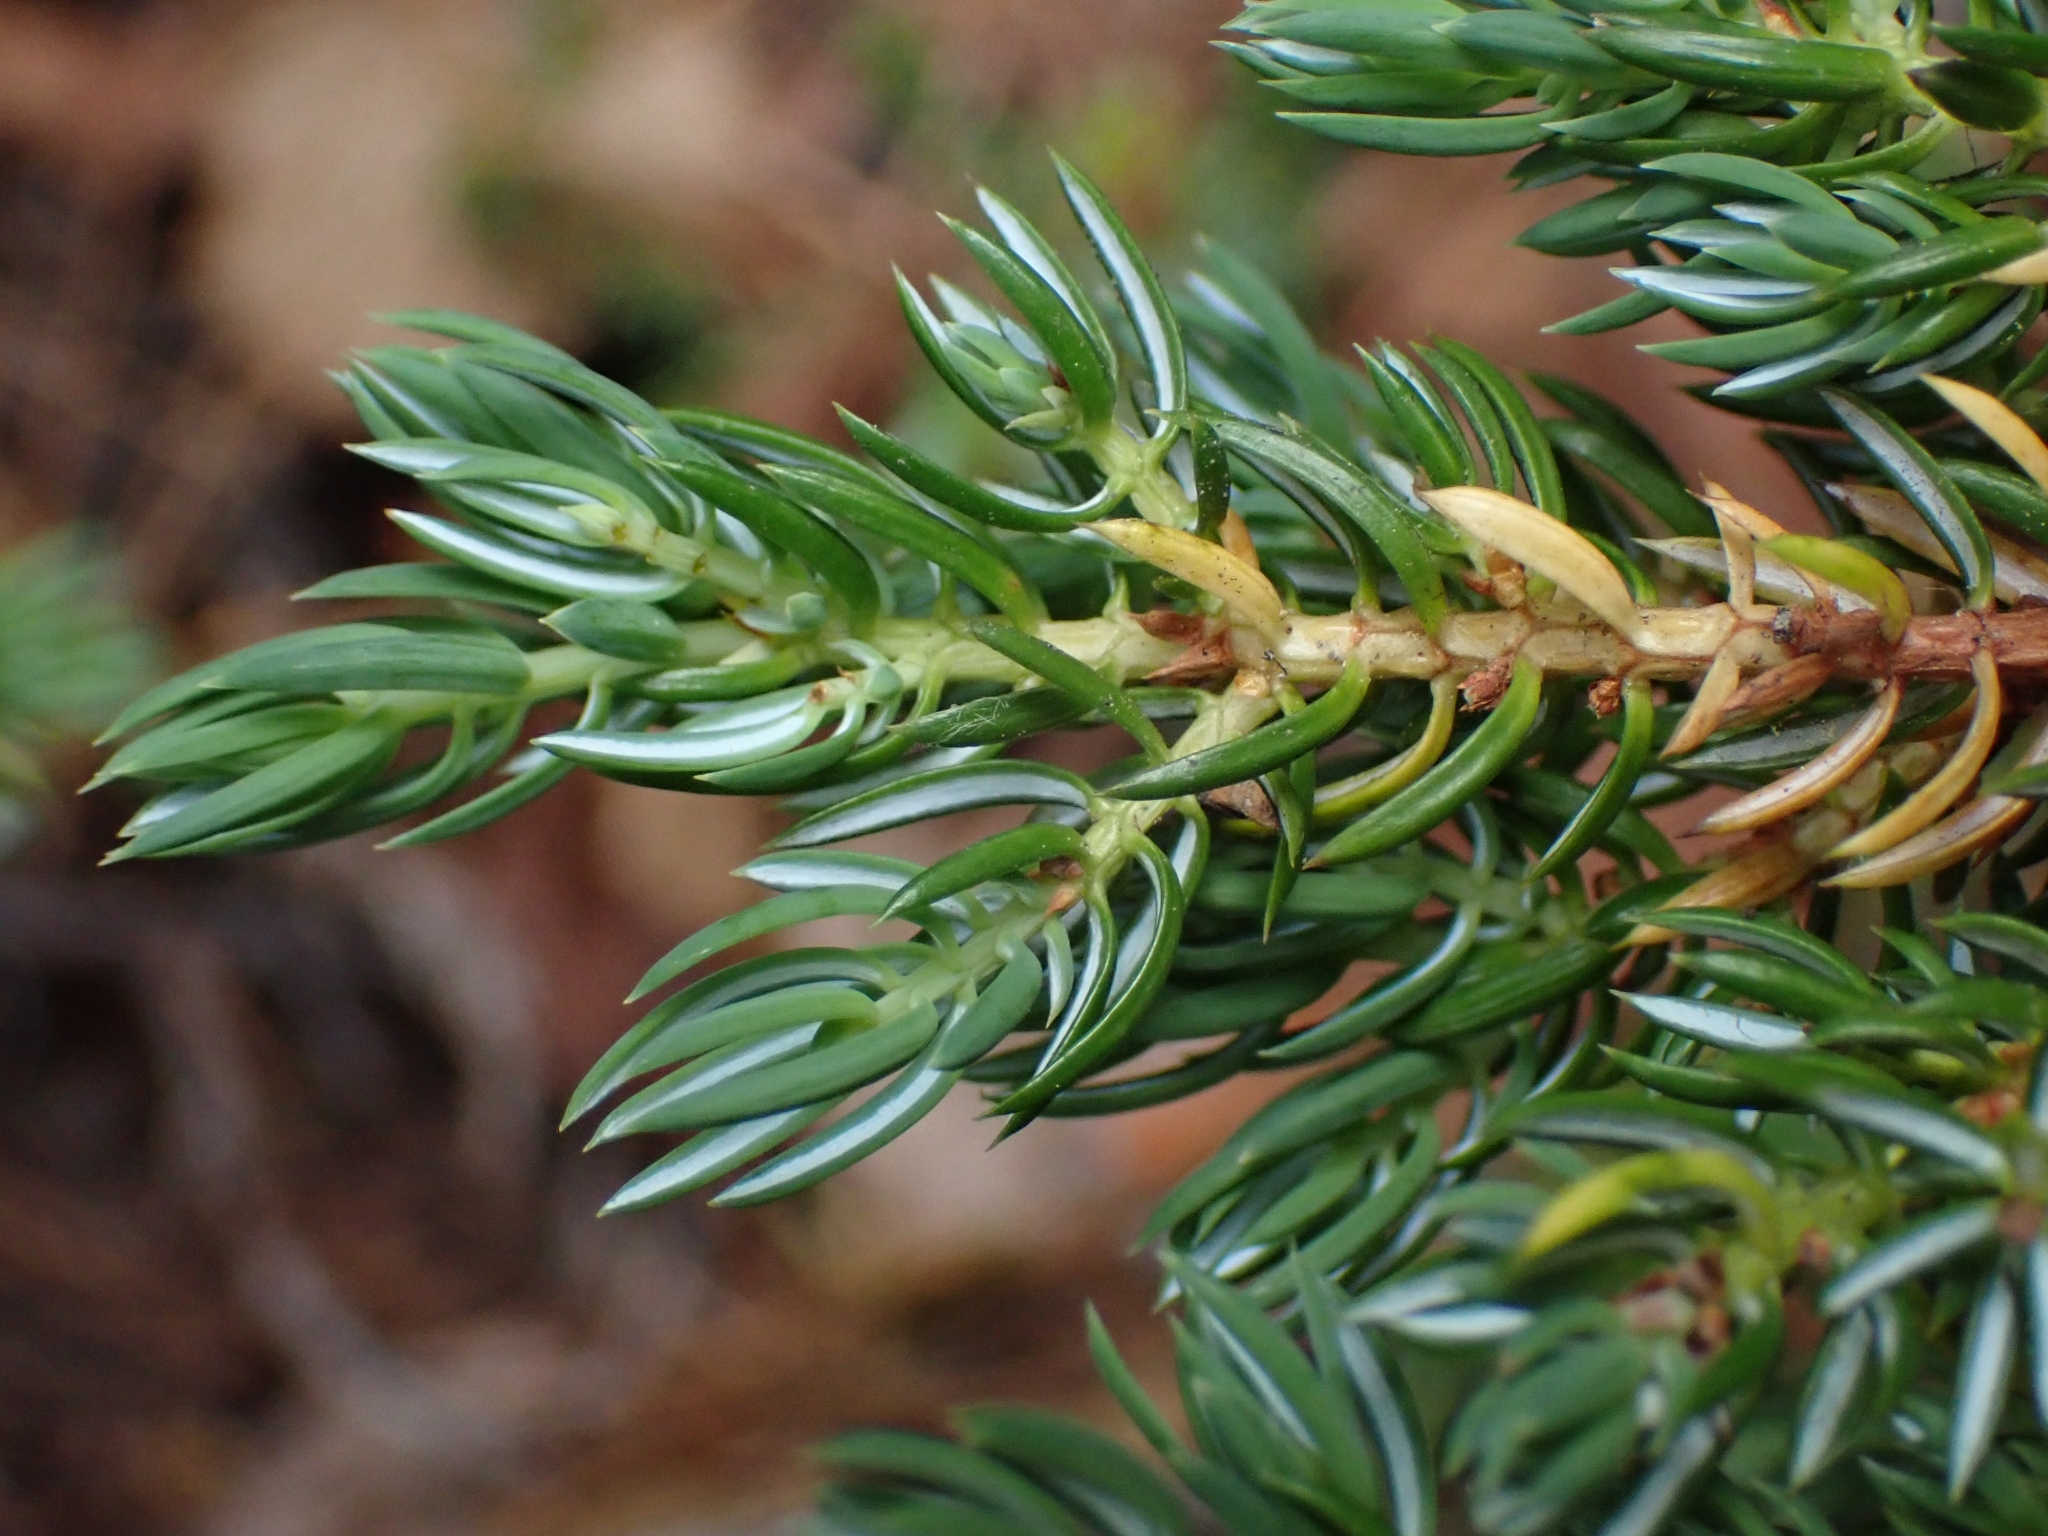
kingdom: Plantae
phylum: Tracheophyta
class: Pinopsida
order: Pinales
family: Cupressaceae
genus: Juniperus
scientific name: Juniperus communis
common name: Common juniper
